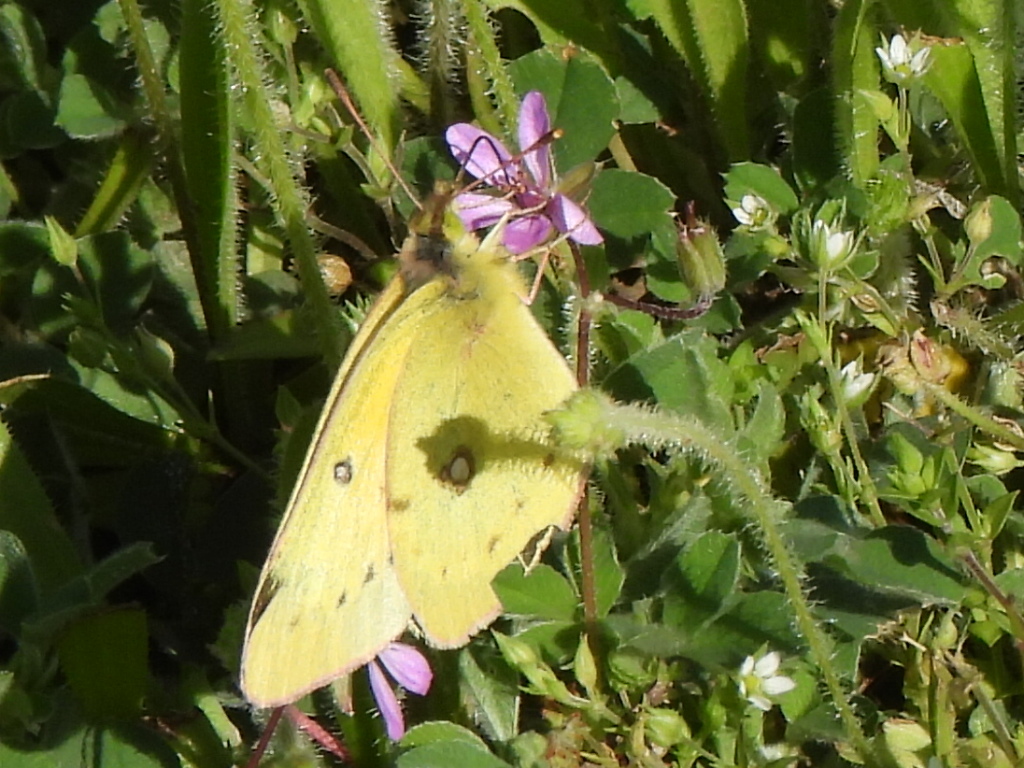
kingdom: Animalia
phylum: Arthropoda
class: Insecta
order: Lepidoptera
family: Pieridae
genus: Colias
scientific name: Colias eurytheme
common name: Alfalfa butterfly
